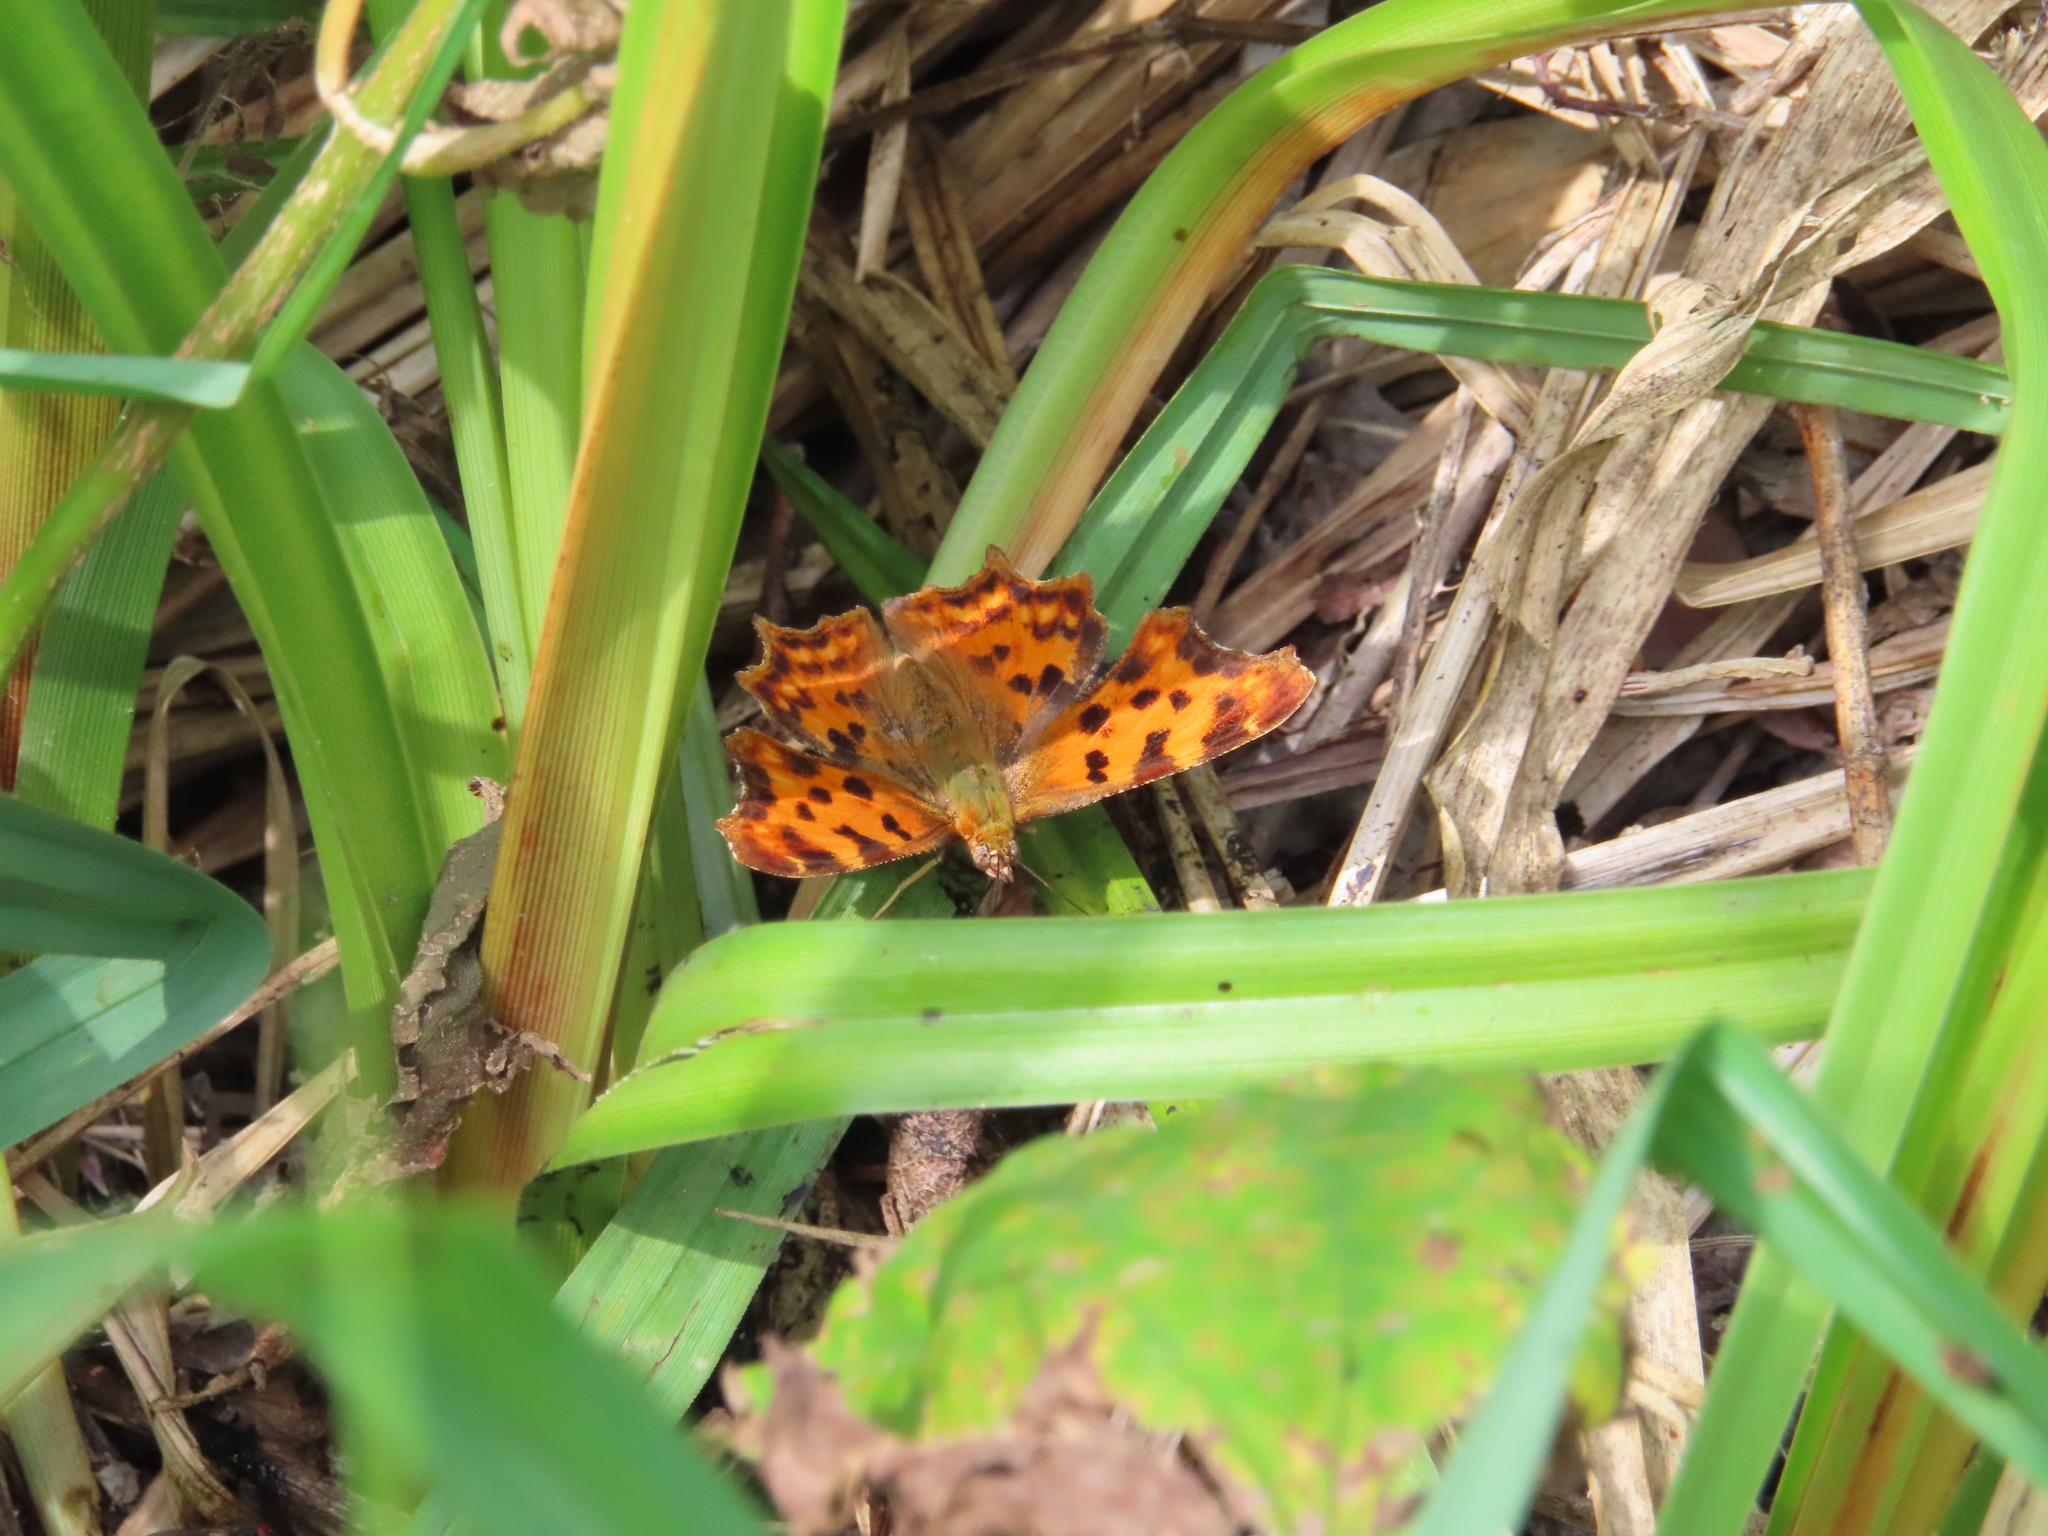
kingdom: Animalia
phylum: Arthropoda
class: Insecta
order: Lepidoptera
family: Nymphalidae
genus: Polygonia
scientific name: Polygonia c-album
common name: Comma
